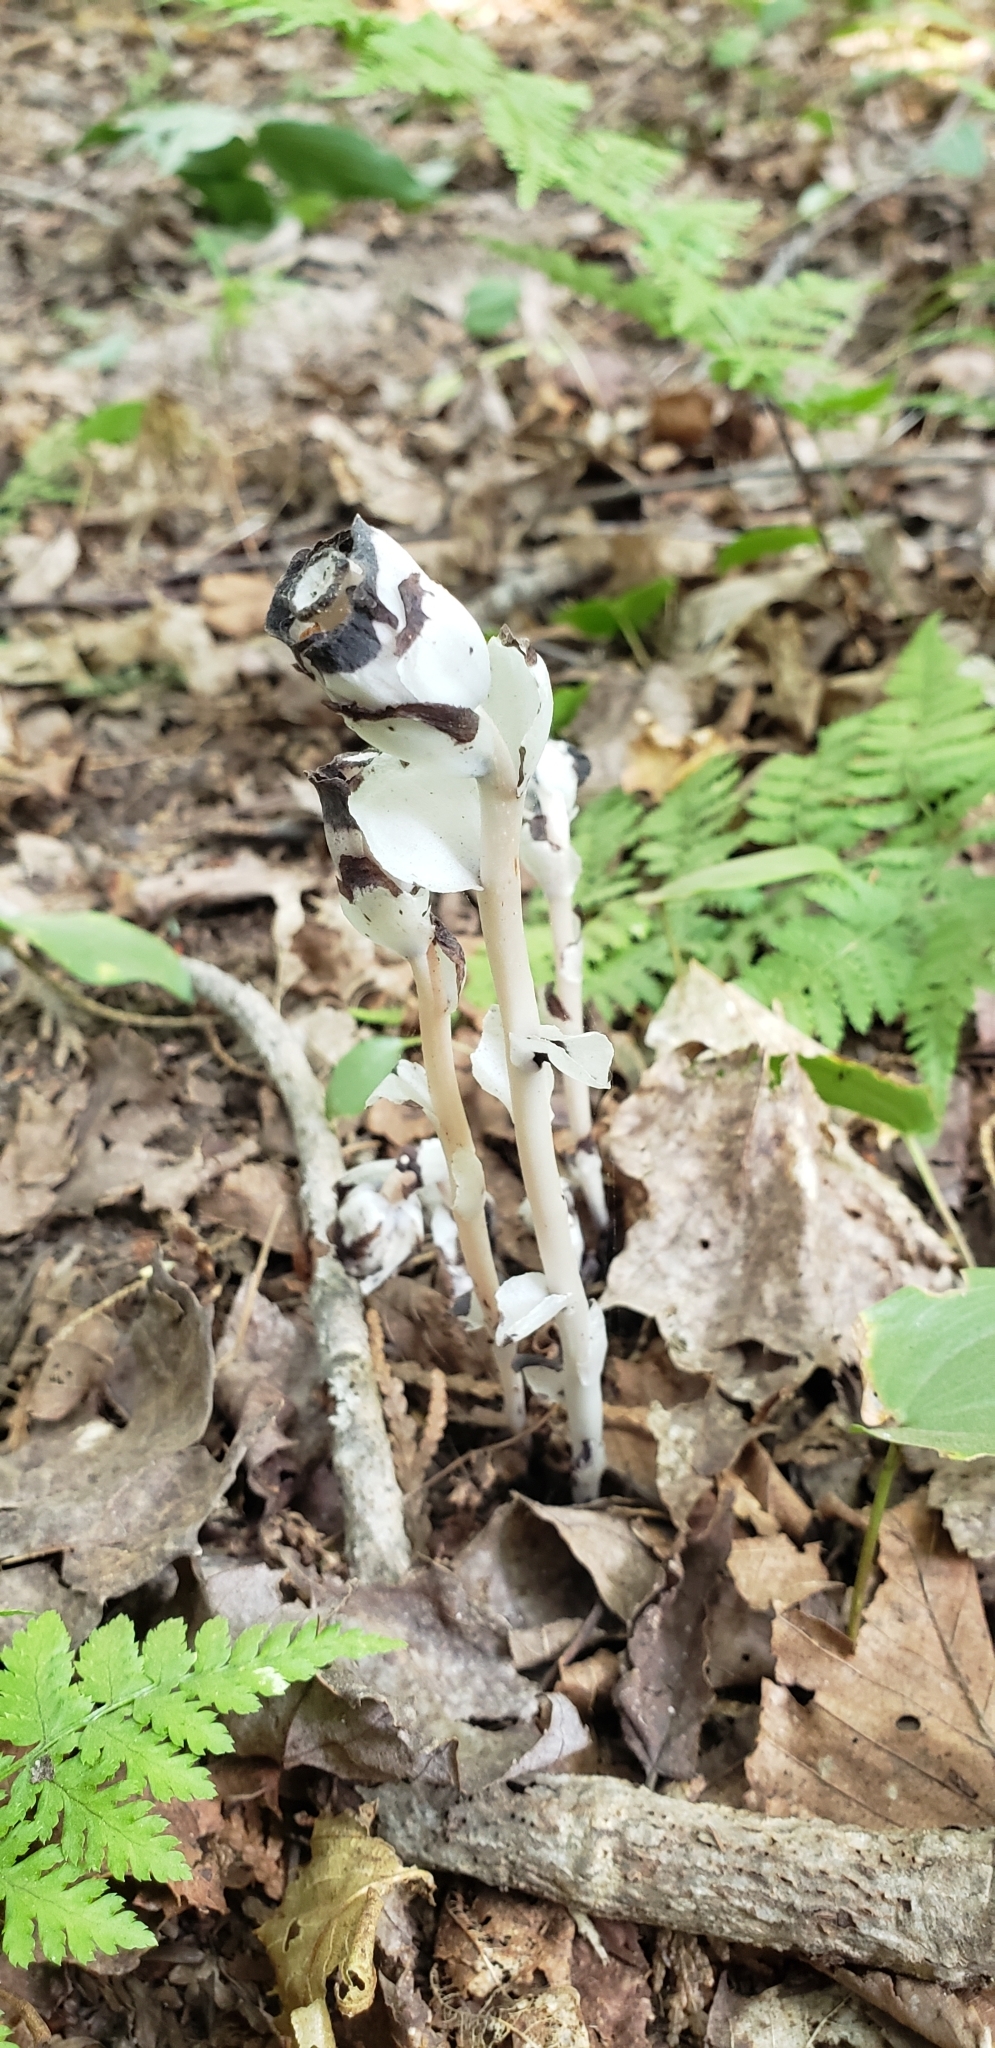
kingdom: Plantae
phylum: Tracheophyta
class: Magnoliopsida
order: Ericales
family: Ericaceae
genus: Monotropa
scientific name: Monotropa uniflora
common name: Convulsion root
